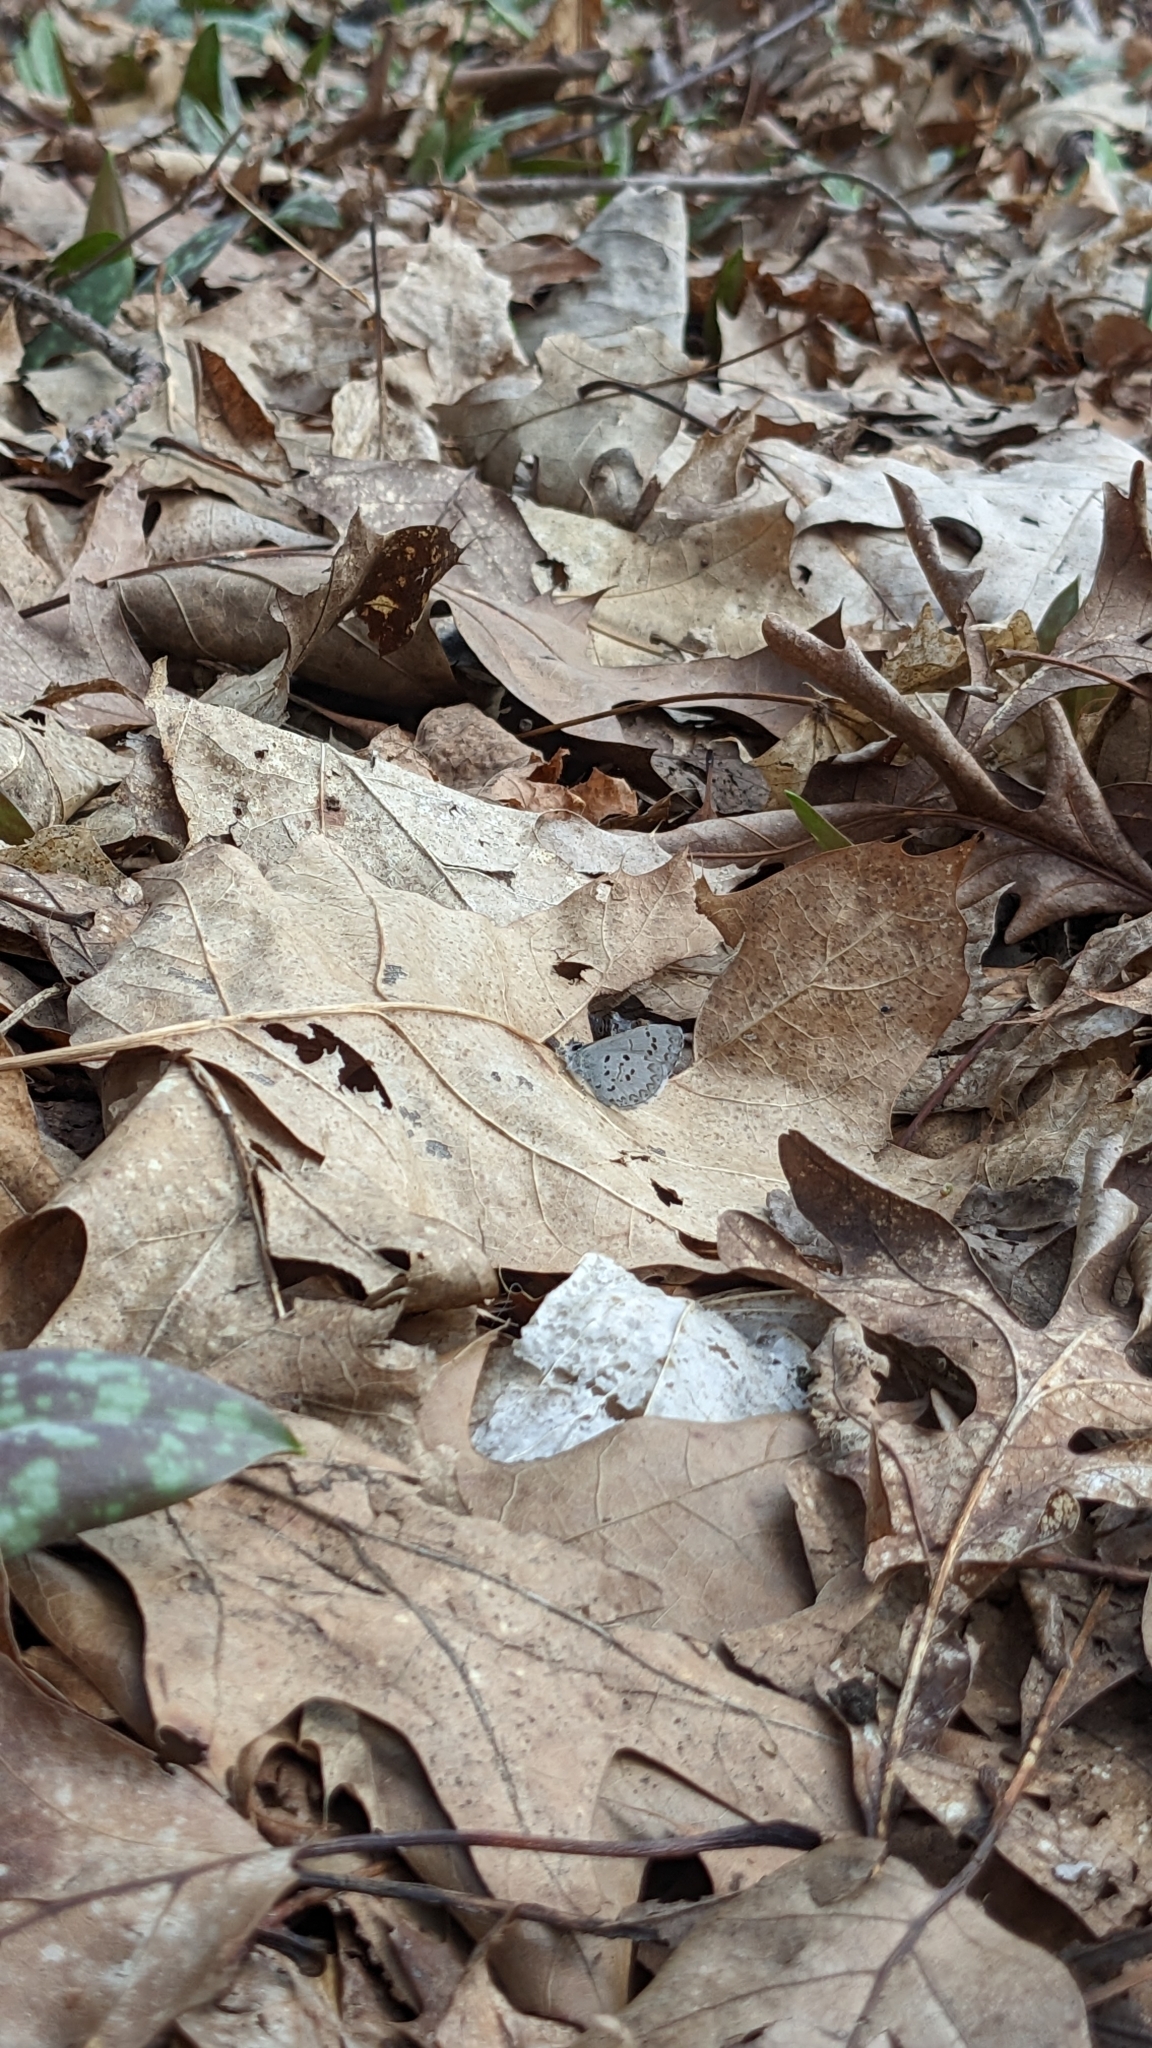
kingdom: Animalia
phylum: Arthropoda
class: Insecta
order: Lepidoptera
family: Lycaenidae
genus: Celastrina
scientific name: Celastrina ladon
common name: Spring azure
